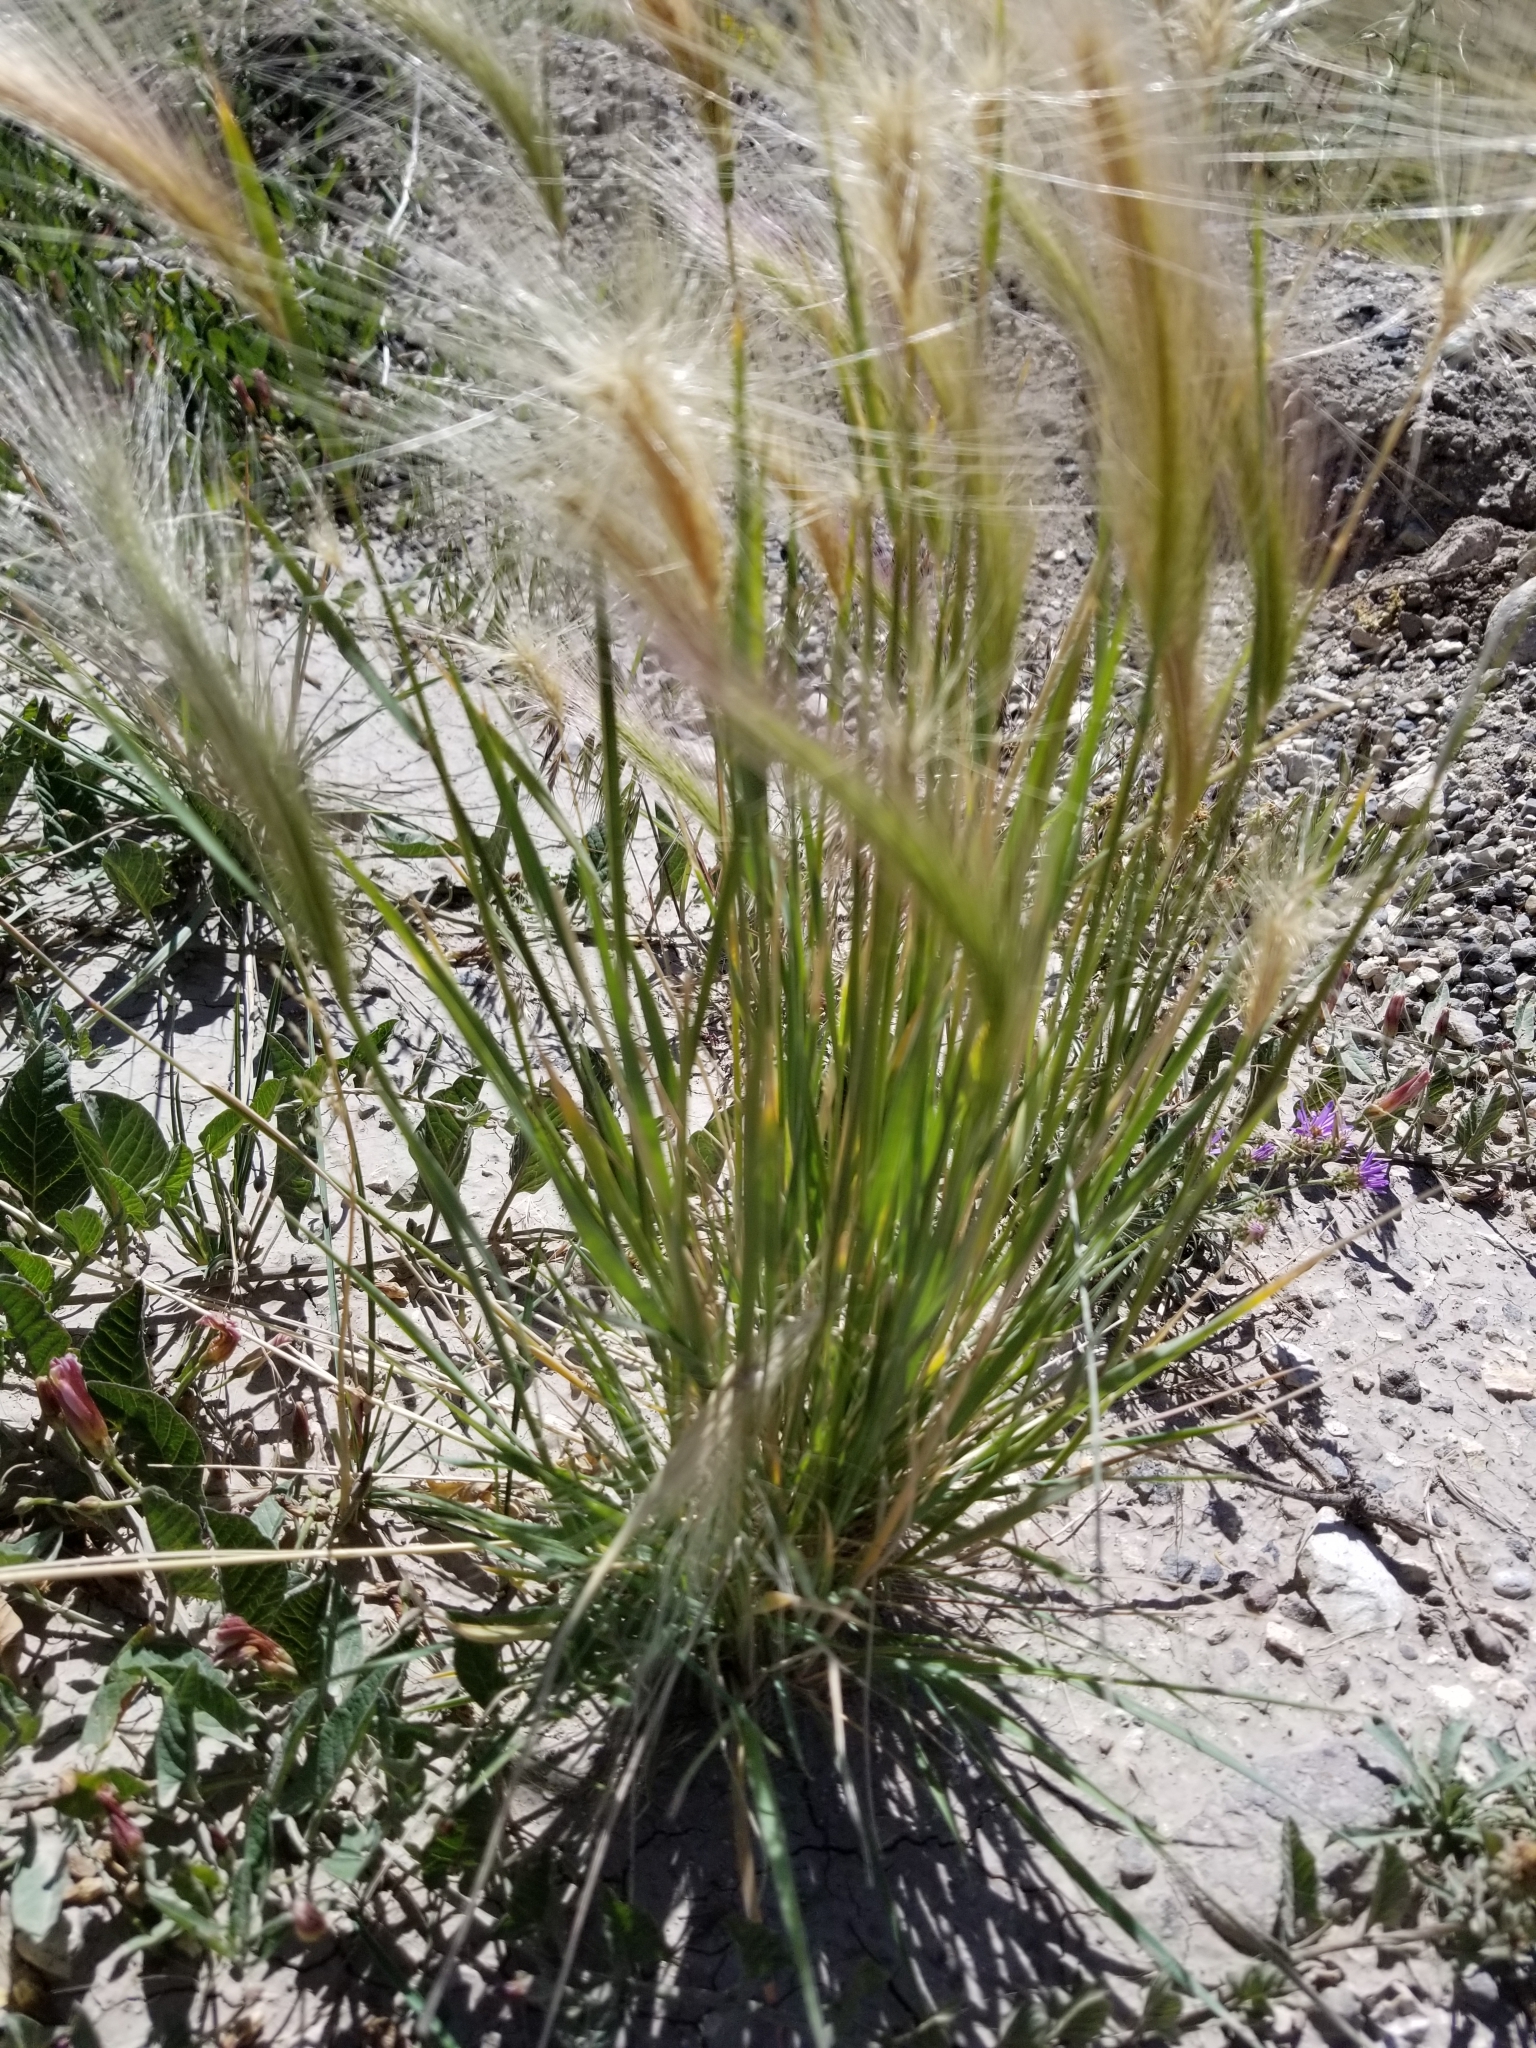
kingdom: Plantae
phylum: Tracheophyta
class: Liliopsida
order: Poales
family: Poaceae
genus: Hordeum
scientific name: Hordeum jubatum
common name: Foxtail barley
